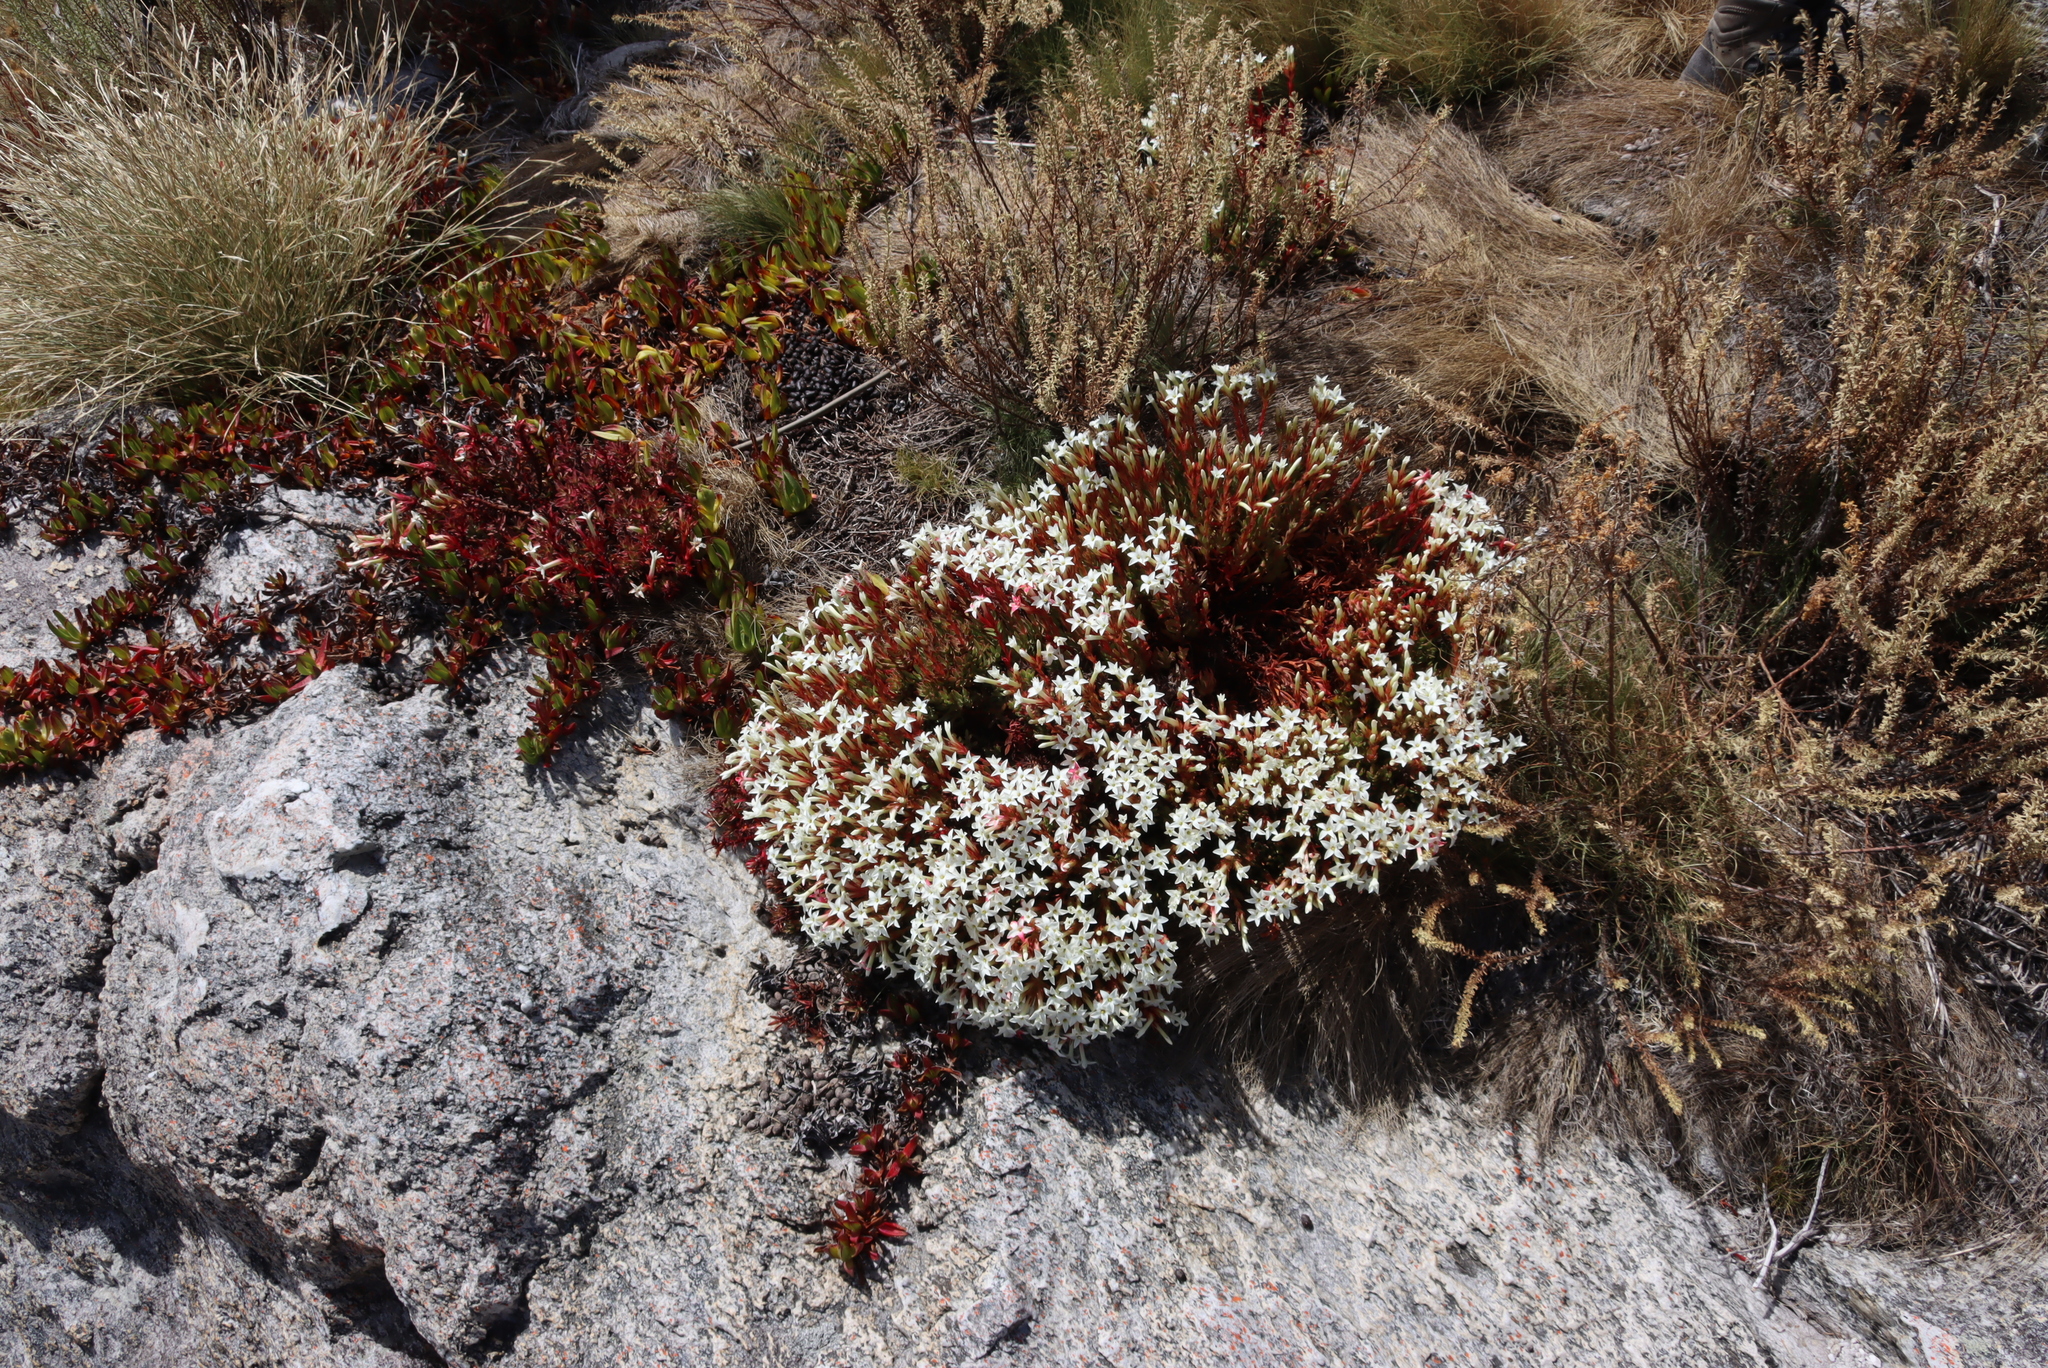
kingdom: Plantae
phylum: Tracheophyta
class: Magnoliopsida
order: Saxifragales
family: Crassulaceae
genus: Crassula
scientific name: Crassula obtusa
